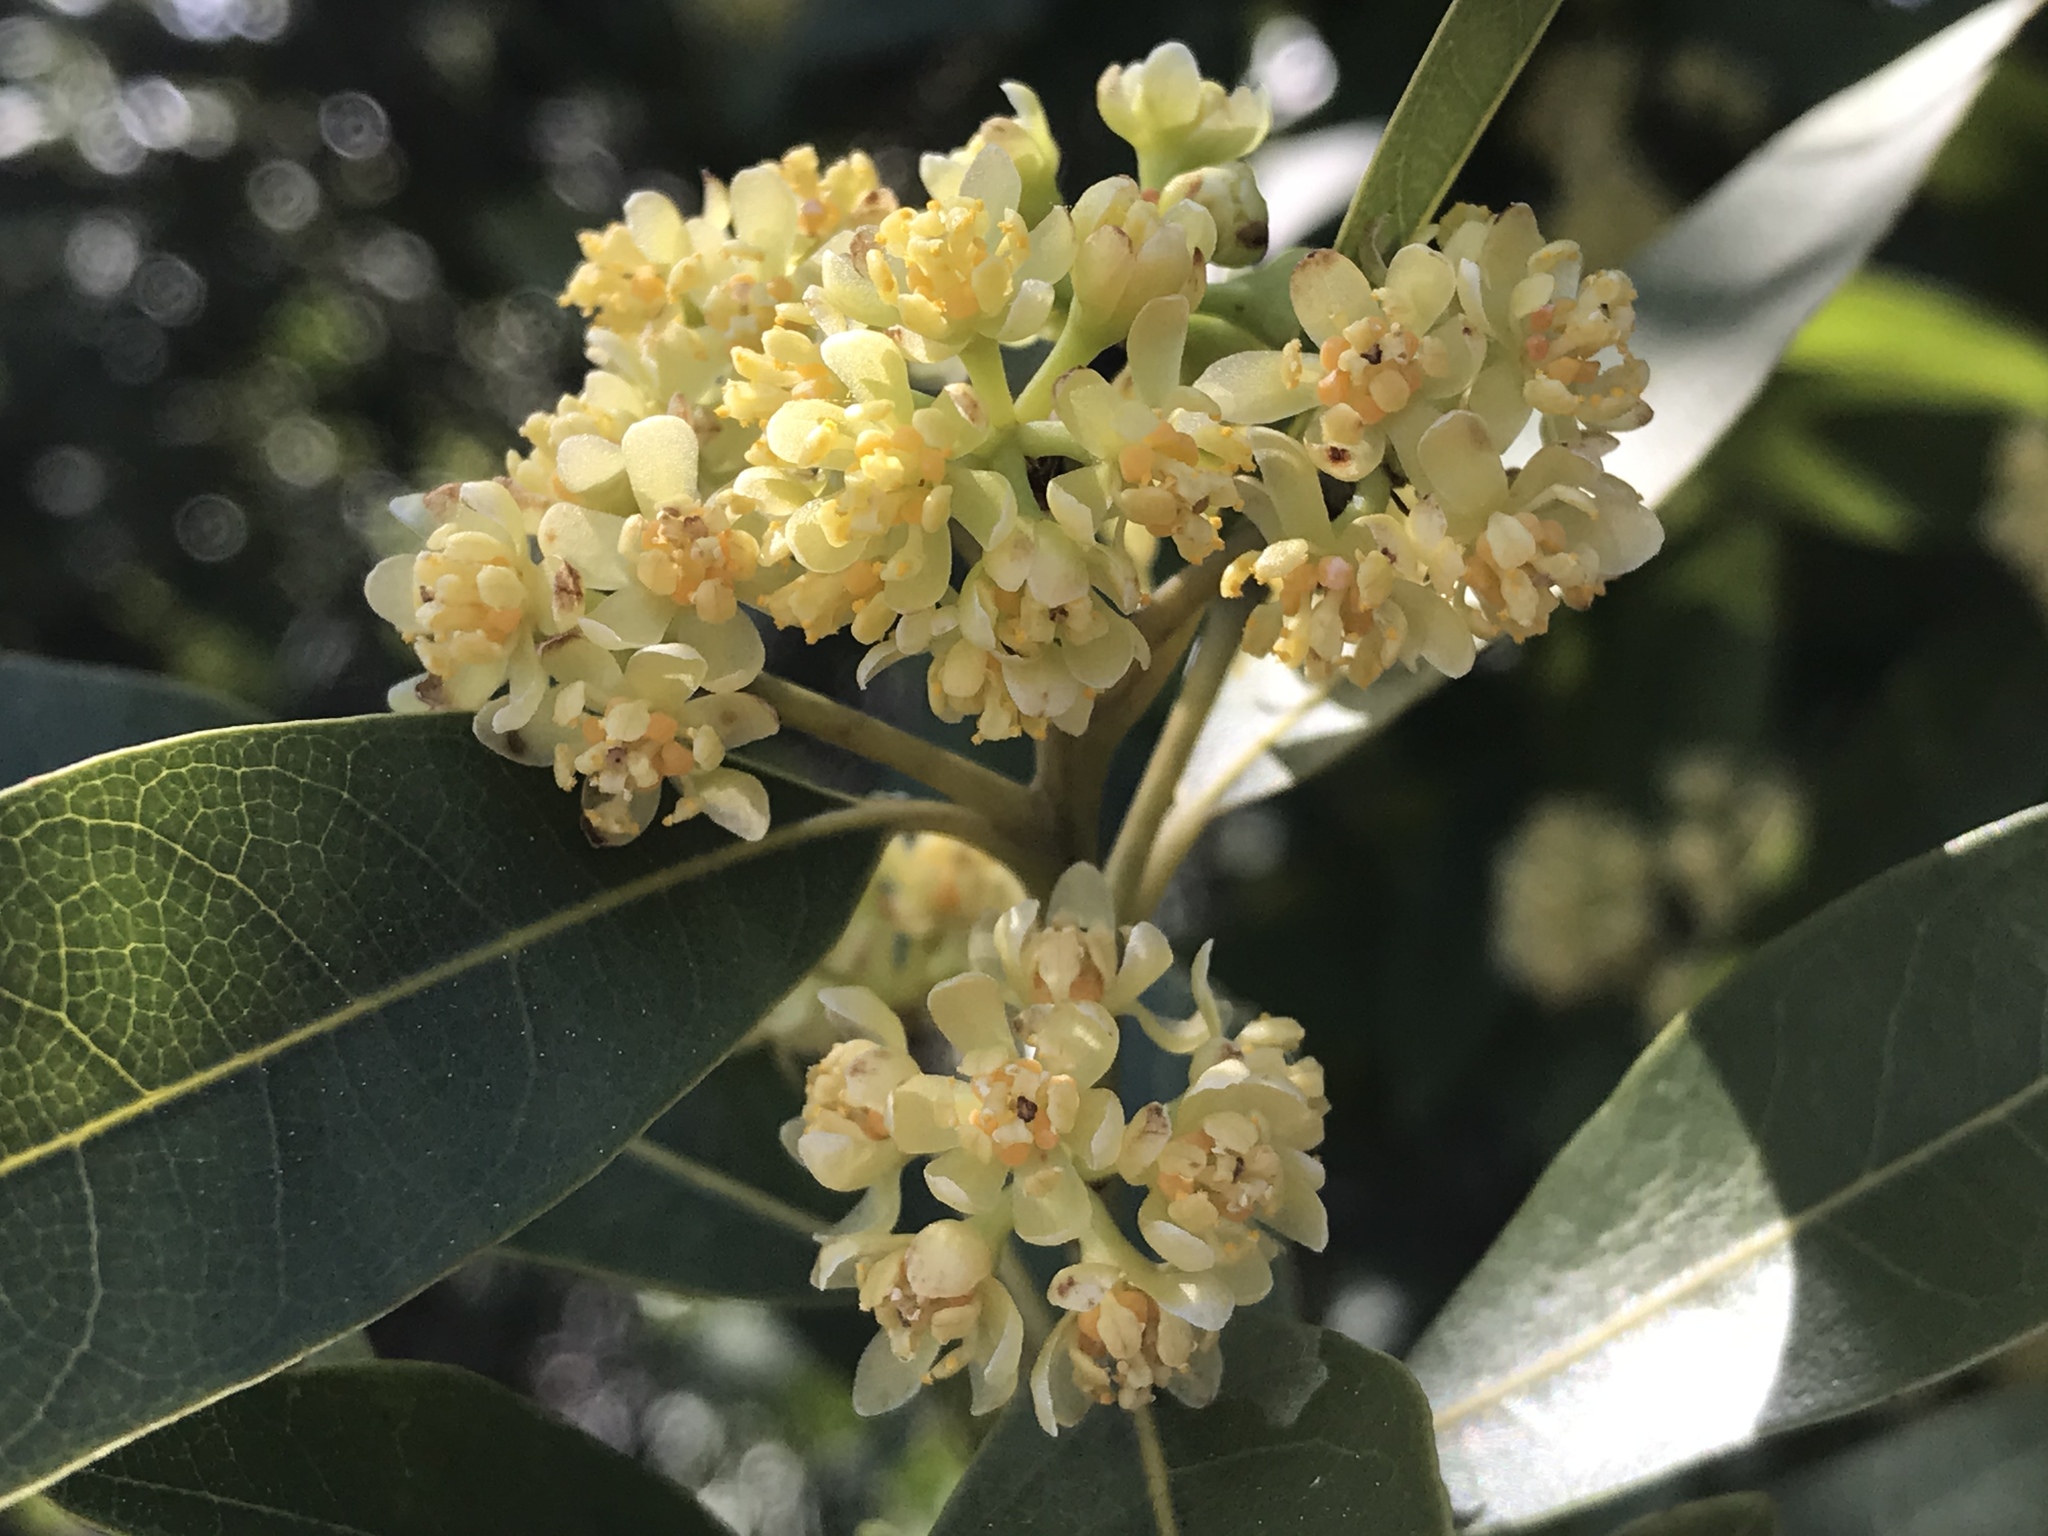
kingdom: Plantae
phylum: Tracheophyta
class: Magnoliopsida
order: Laurales
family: Lauraceae
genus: Umbellularia
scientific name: Umbellularia californica
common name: California bay
